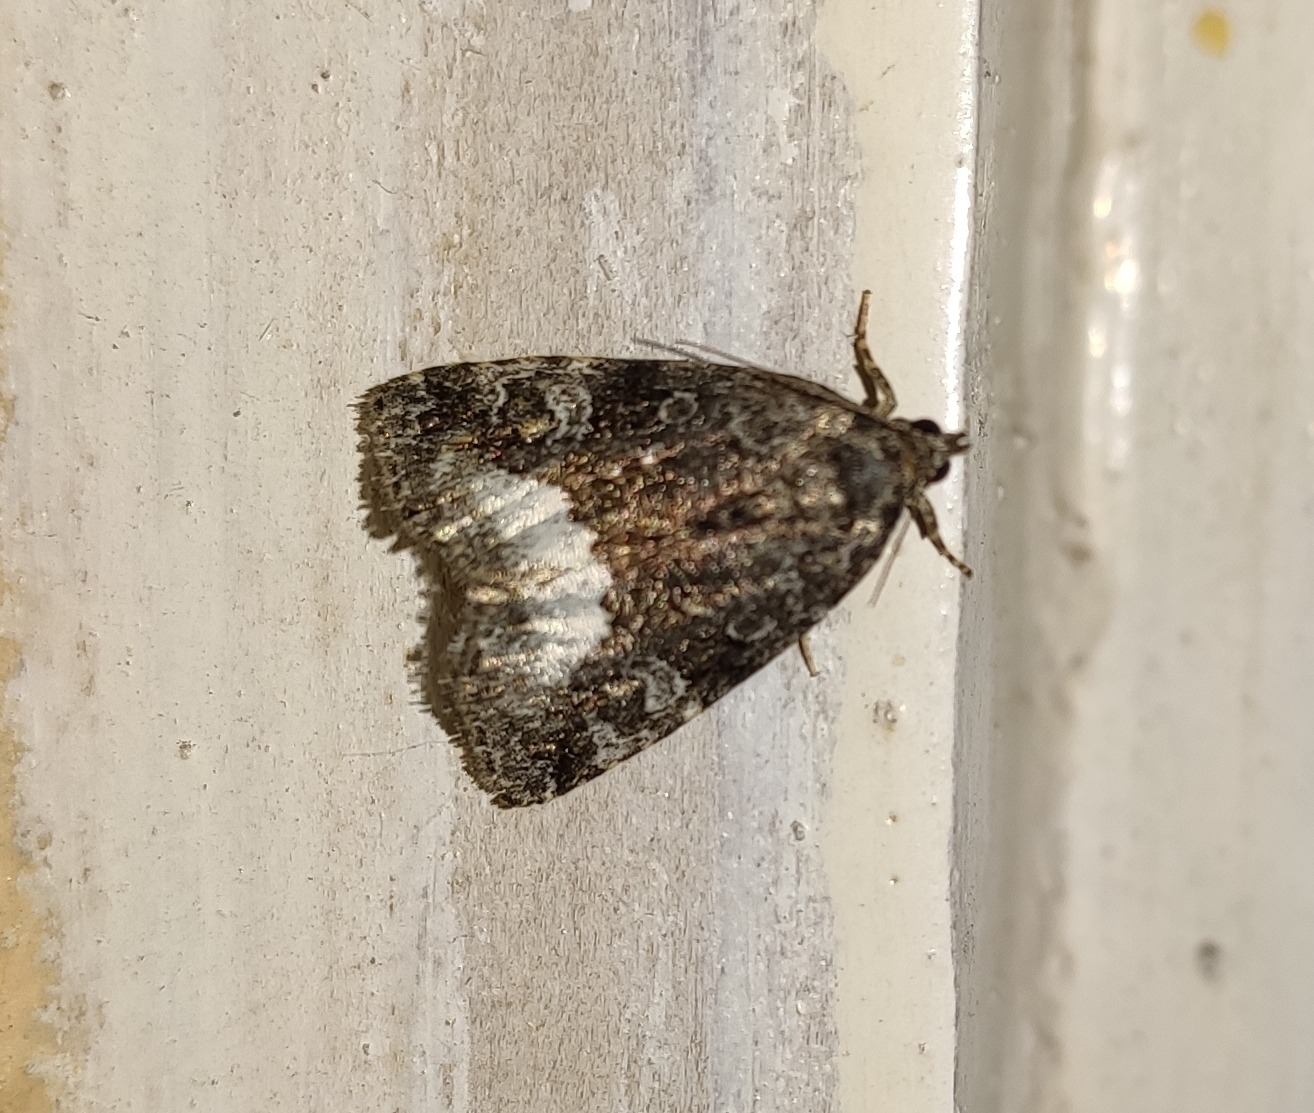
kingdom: Animalia
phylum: Arthropoda
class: Insecta
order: Lepidoptera
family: Noctuidae
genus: Deltote
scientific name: Deltote pygarga
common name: Marbled white spot
